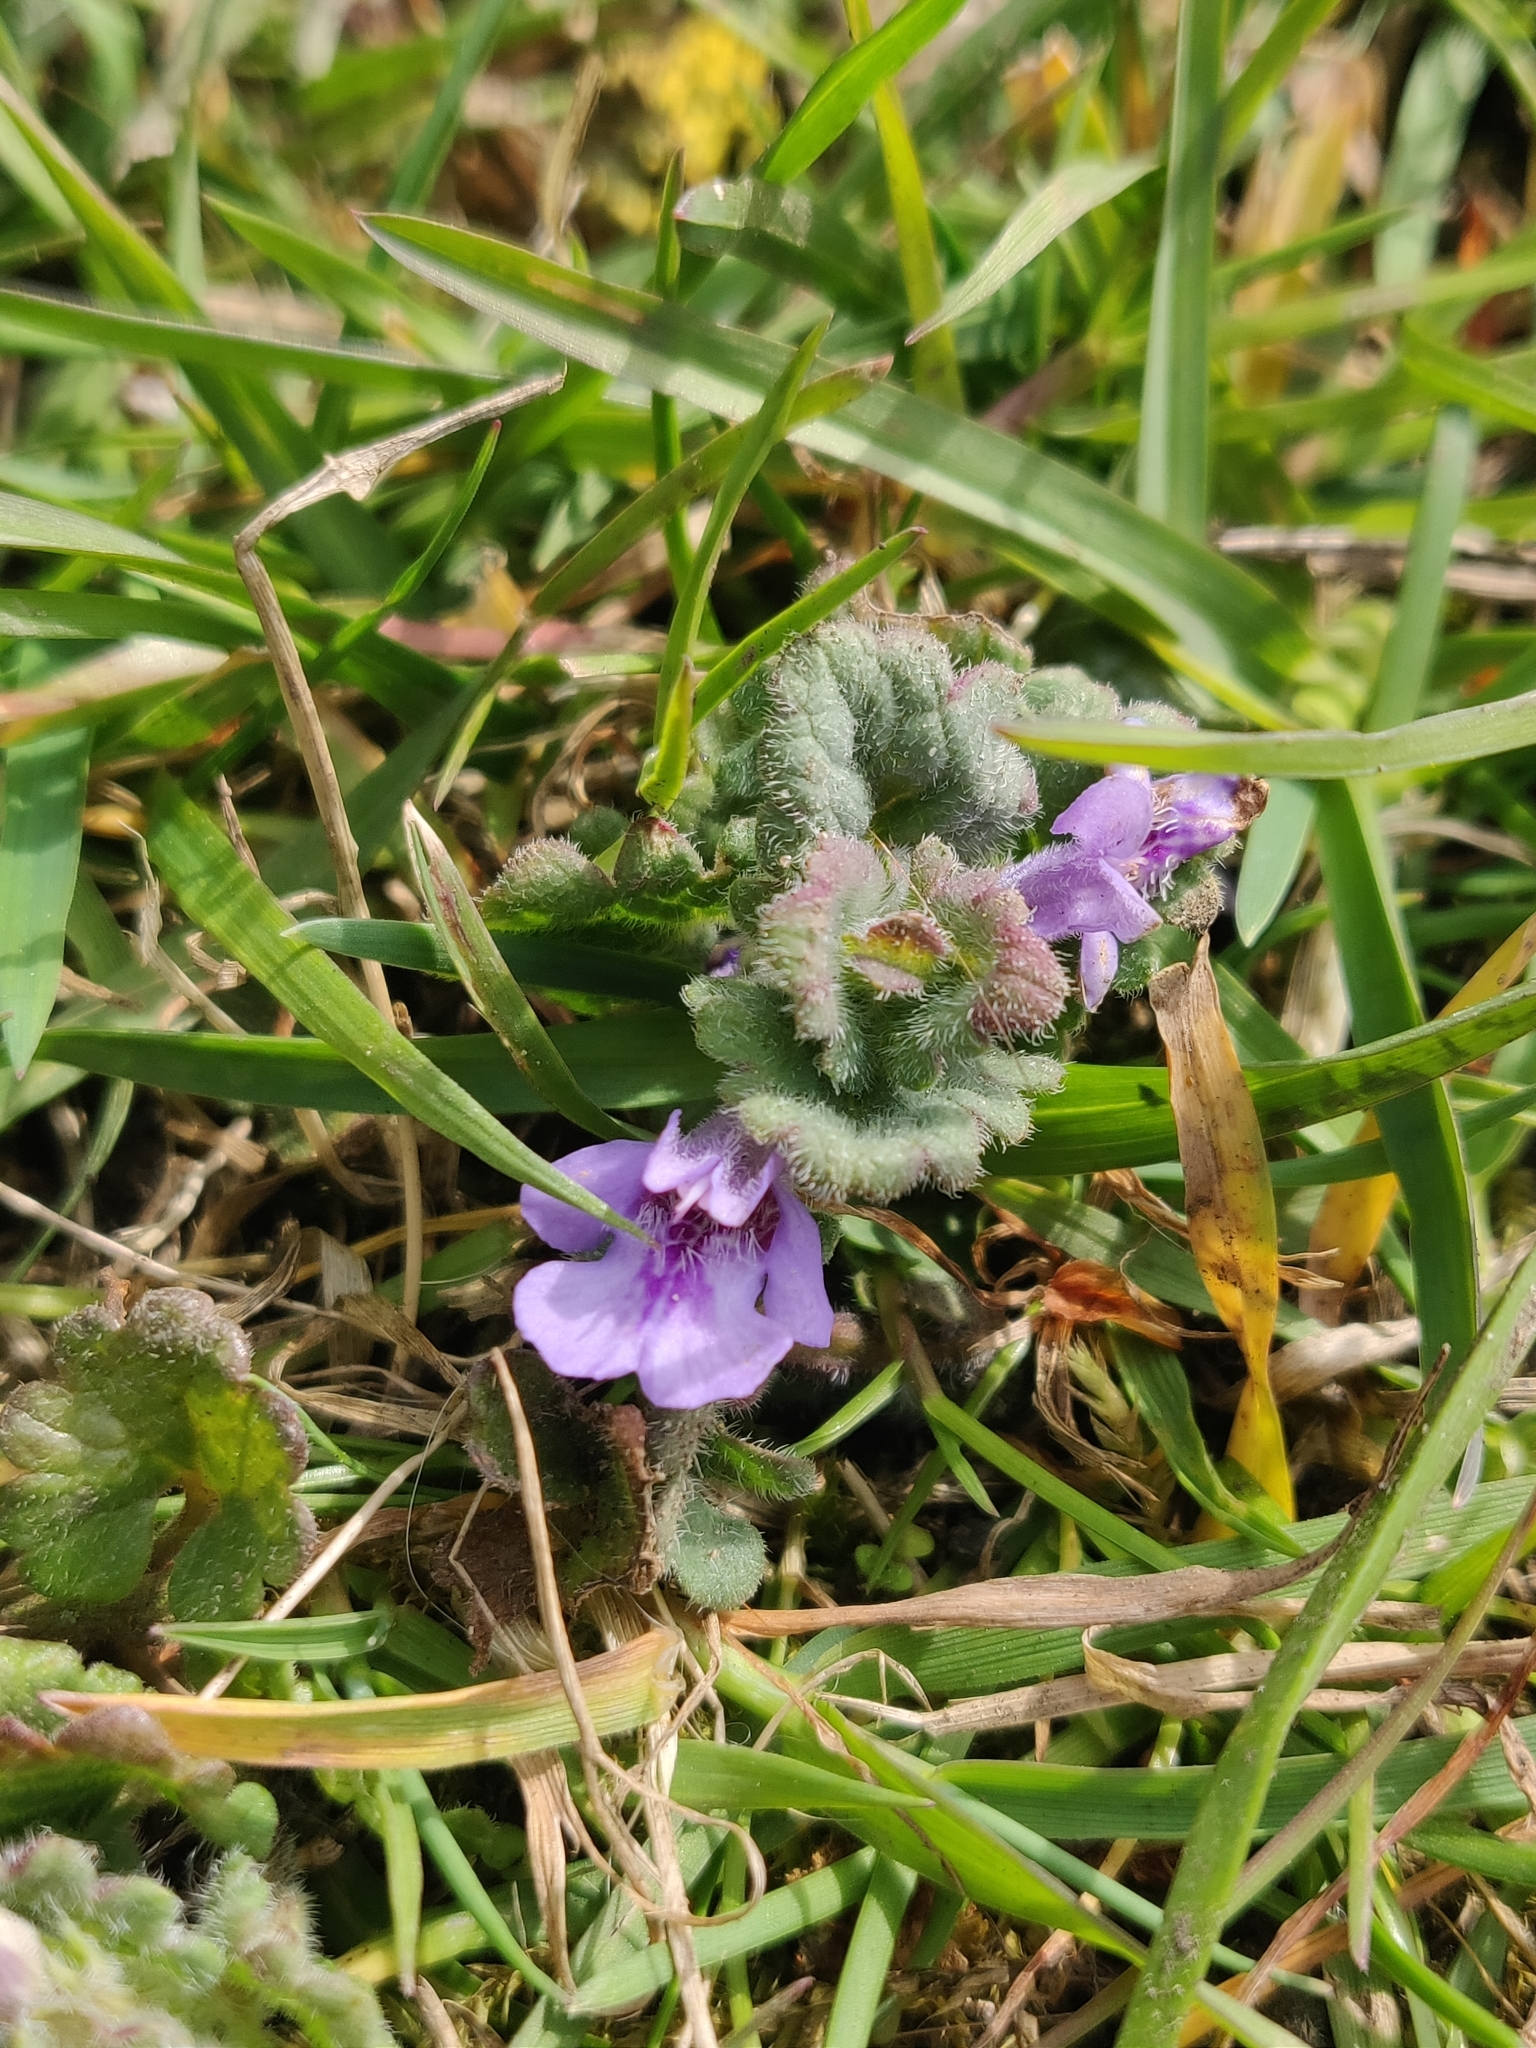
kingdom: Plantae
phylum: Tracheophyta
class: Magnoliopsida
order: Lamiales
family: Lamiaceae
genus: Glechoma
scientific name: Glechoma hederacea
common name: Ground ivy
